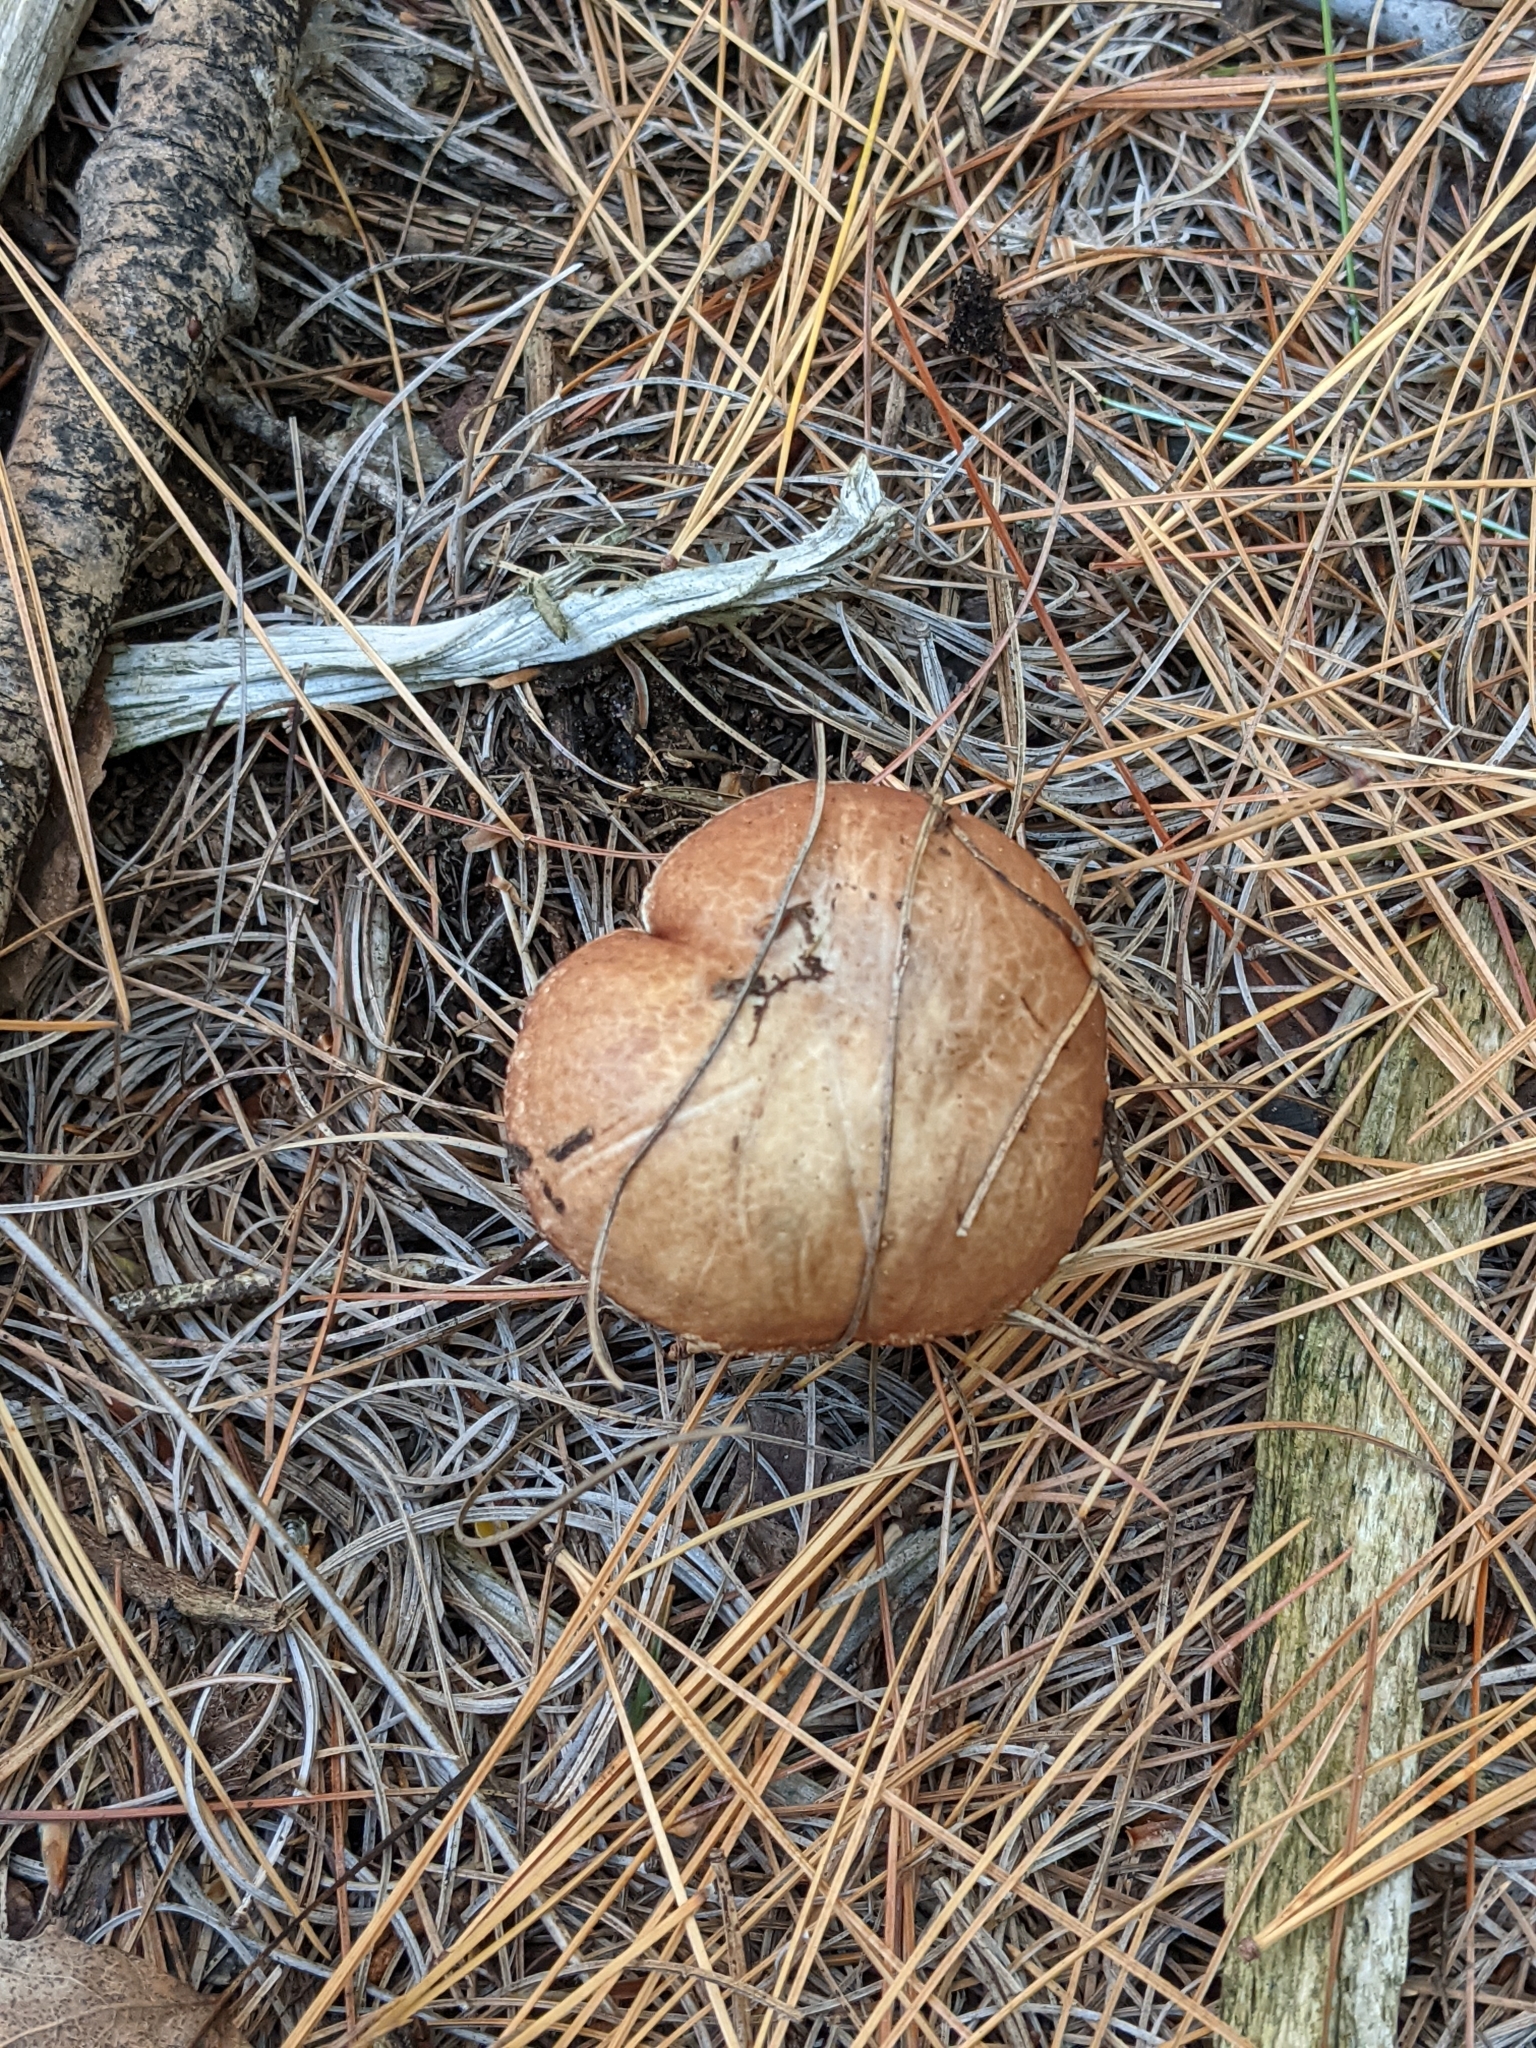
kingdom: Fungi
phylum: Basidiomycota
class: Agaricomycetes
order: Boletales
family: Suillaceae
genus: Fuscoboletinus
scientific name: Fuscoboletinus weaverae
